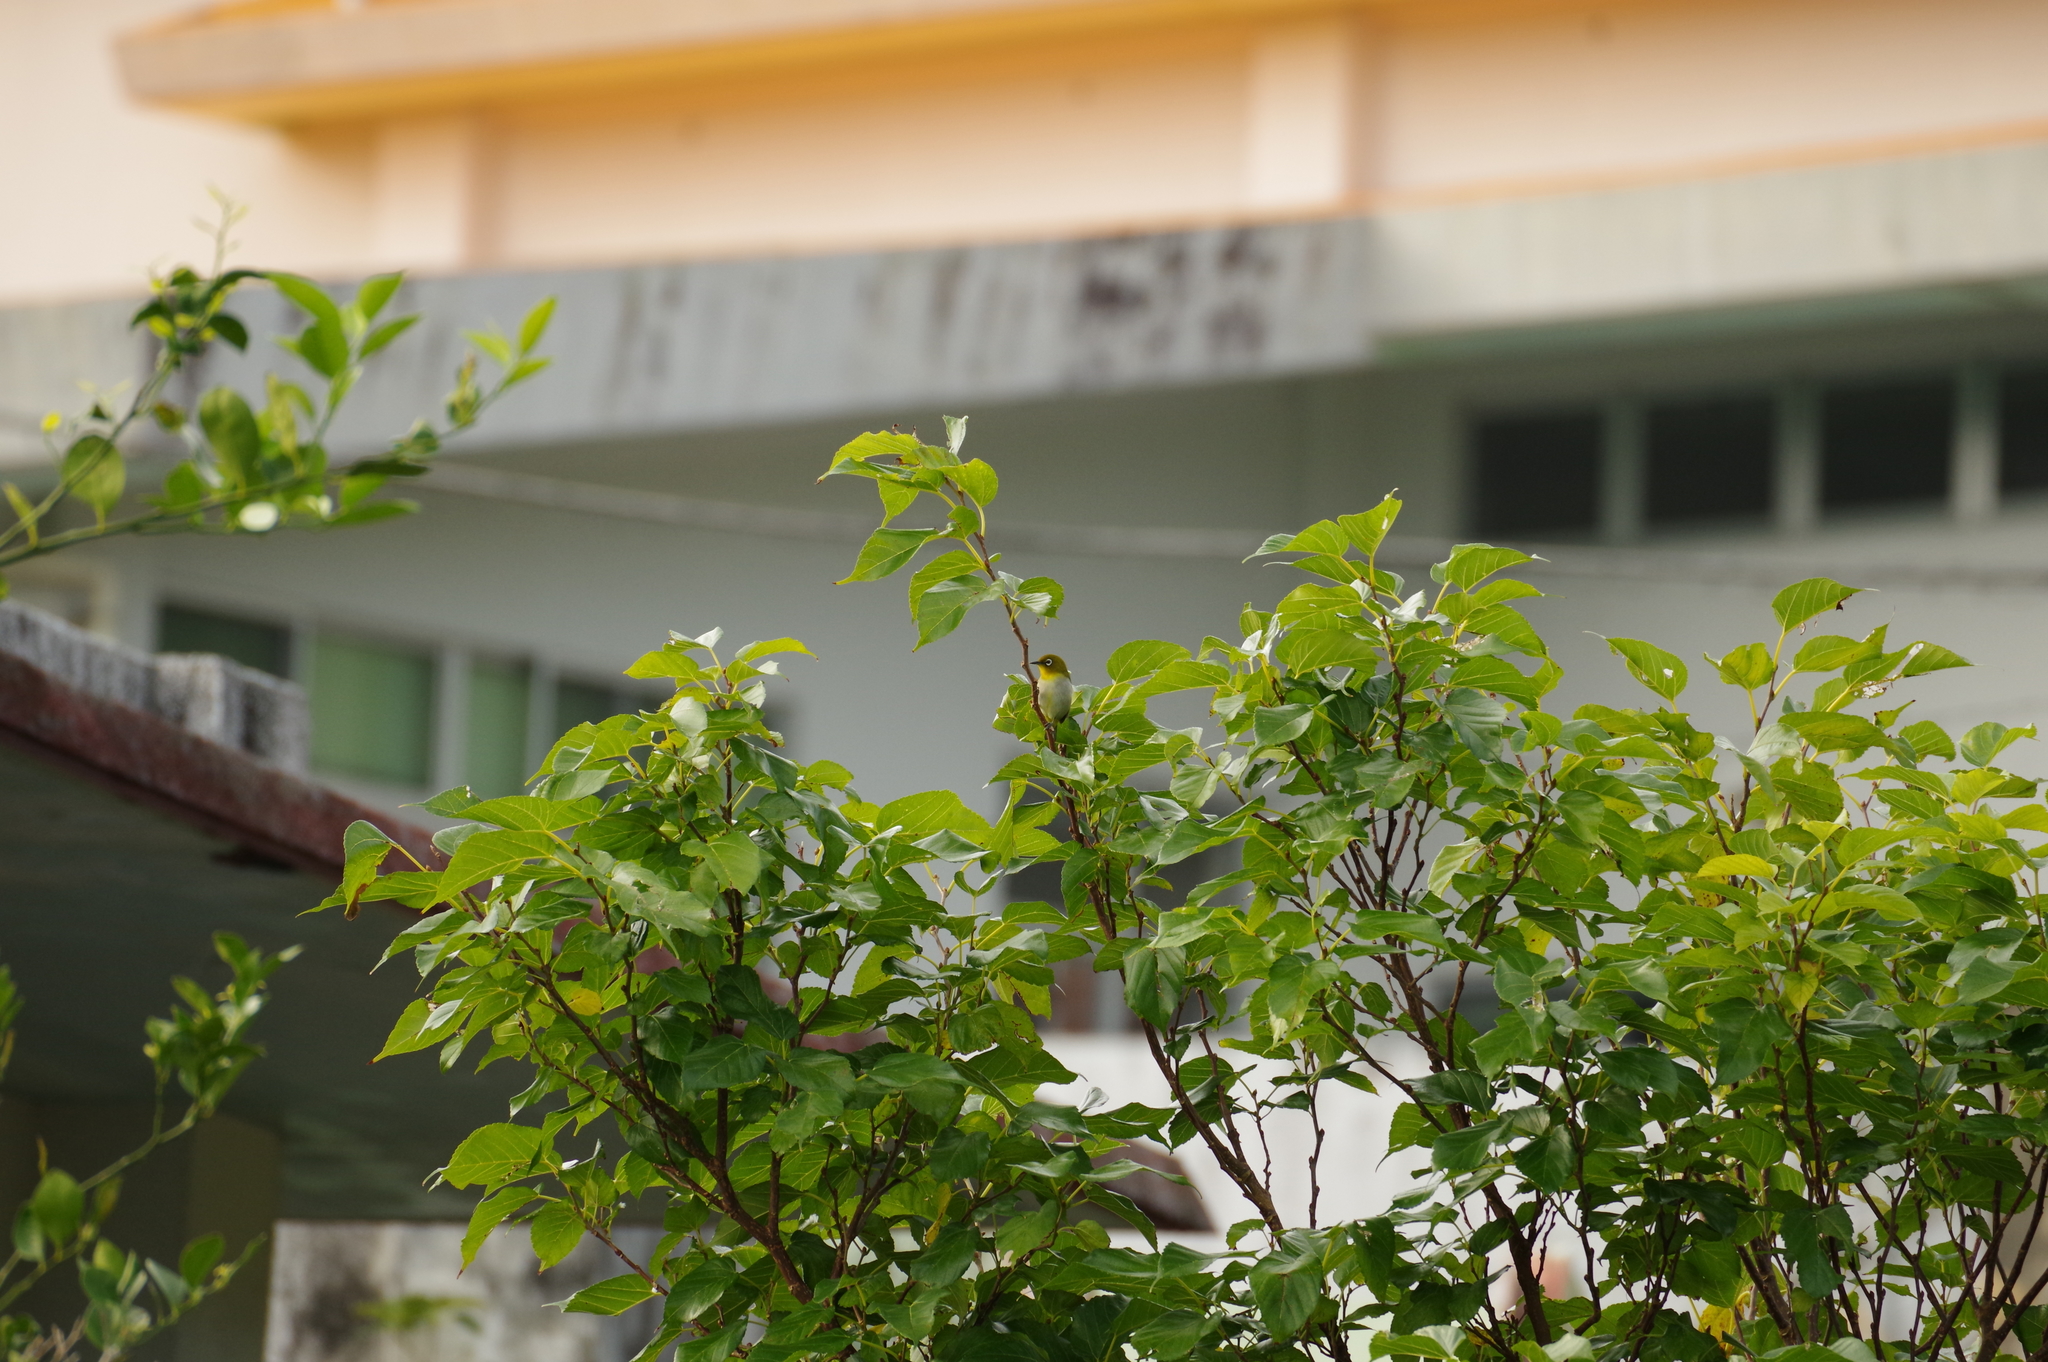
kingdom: Animalia
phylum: Chordata
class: Aves
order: Passeriformes
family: Zosteropidae
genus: Zosterops
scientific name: Zosterops japonicus
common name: Japanese white-eye
